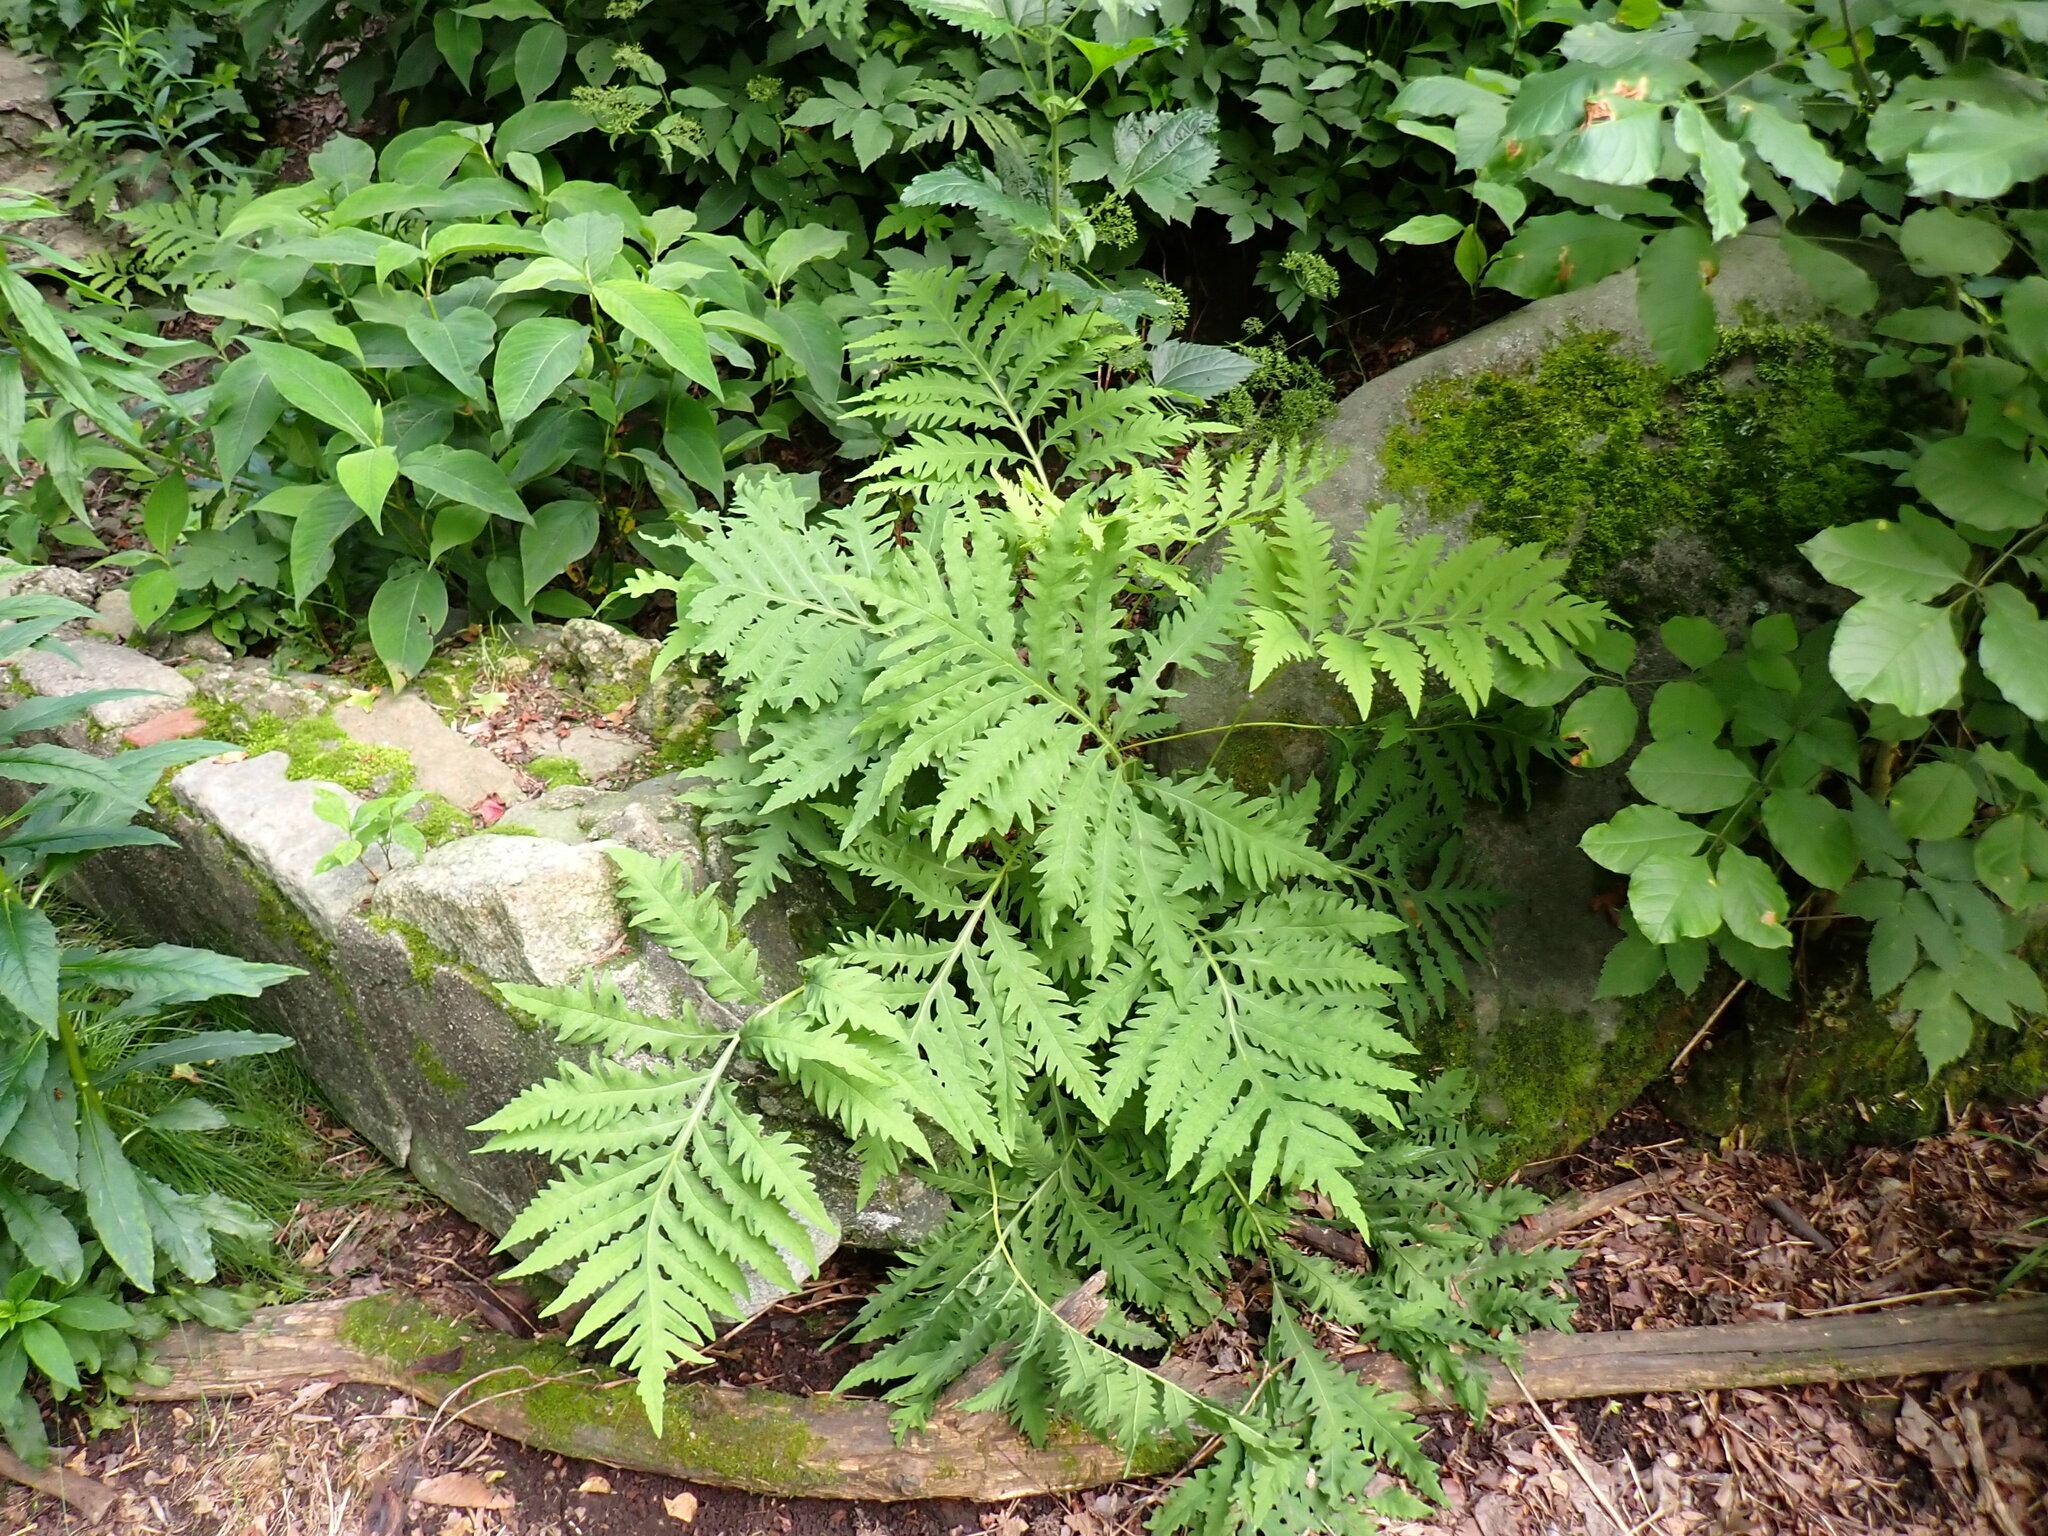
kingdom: Plantae
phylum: Tracheophyta
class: Polypodiopsida
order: Polypodiales
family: Onocleaceae
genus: Onoclea
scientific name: Onoclea sensibilis
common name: Sensitive fern
